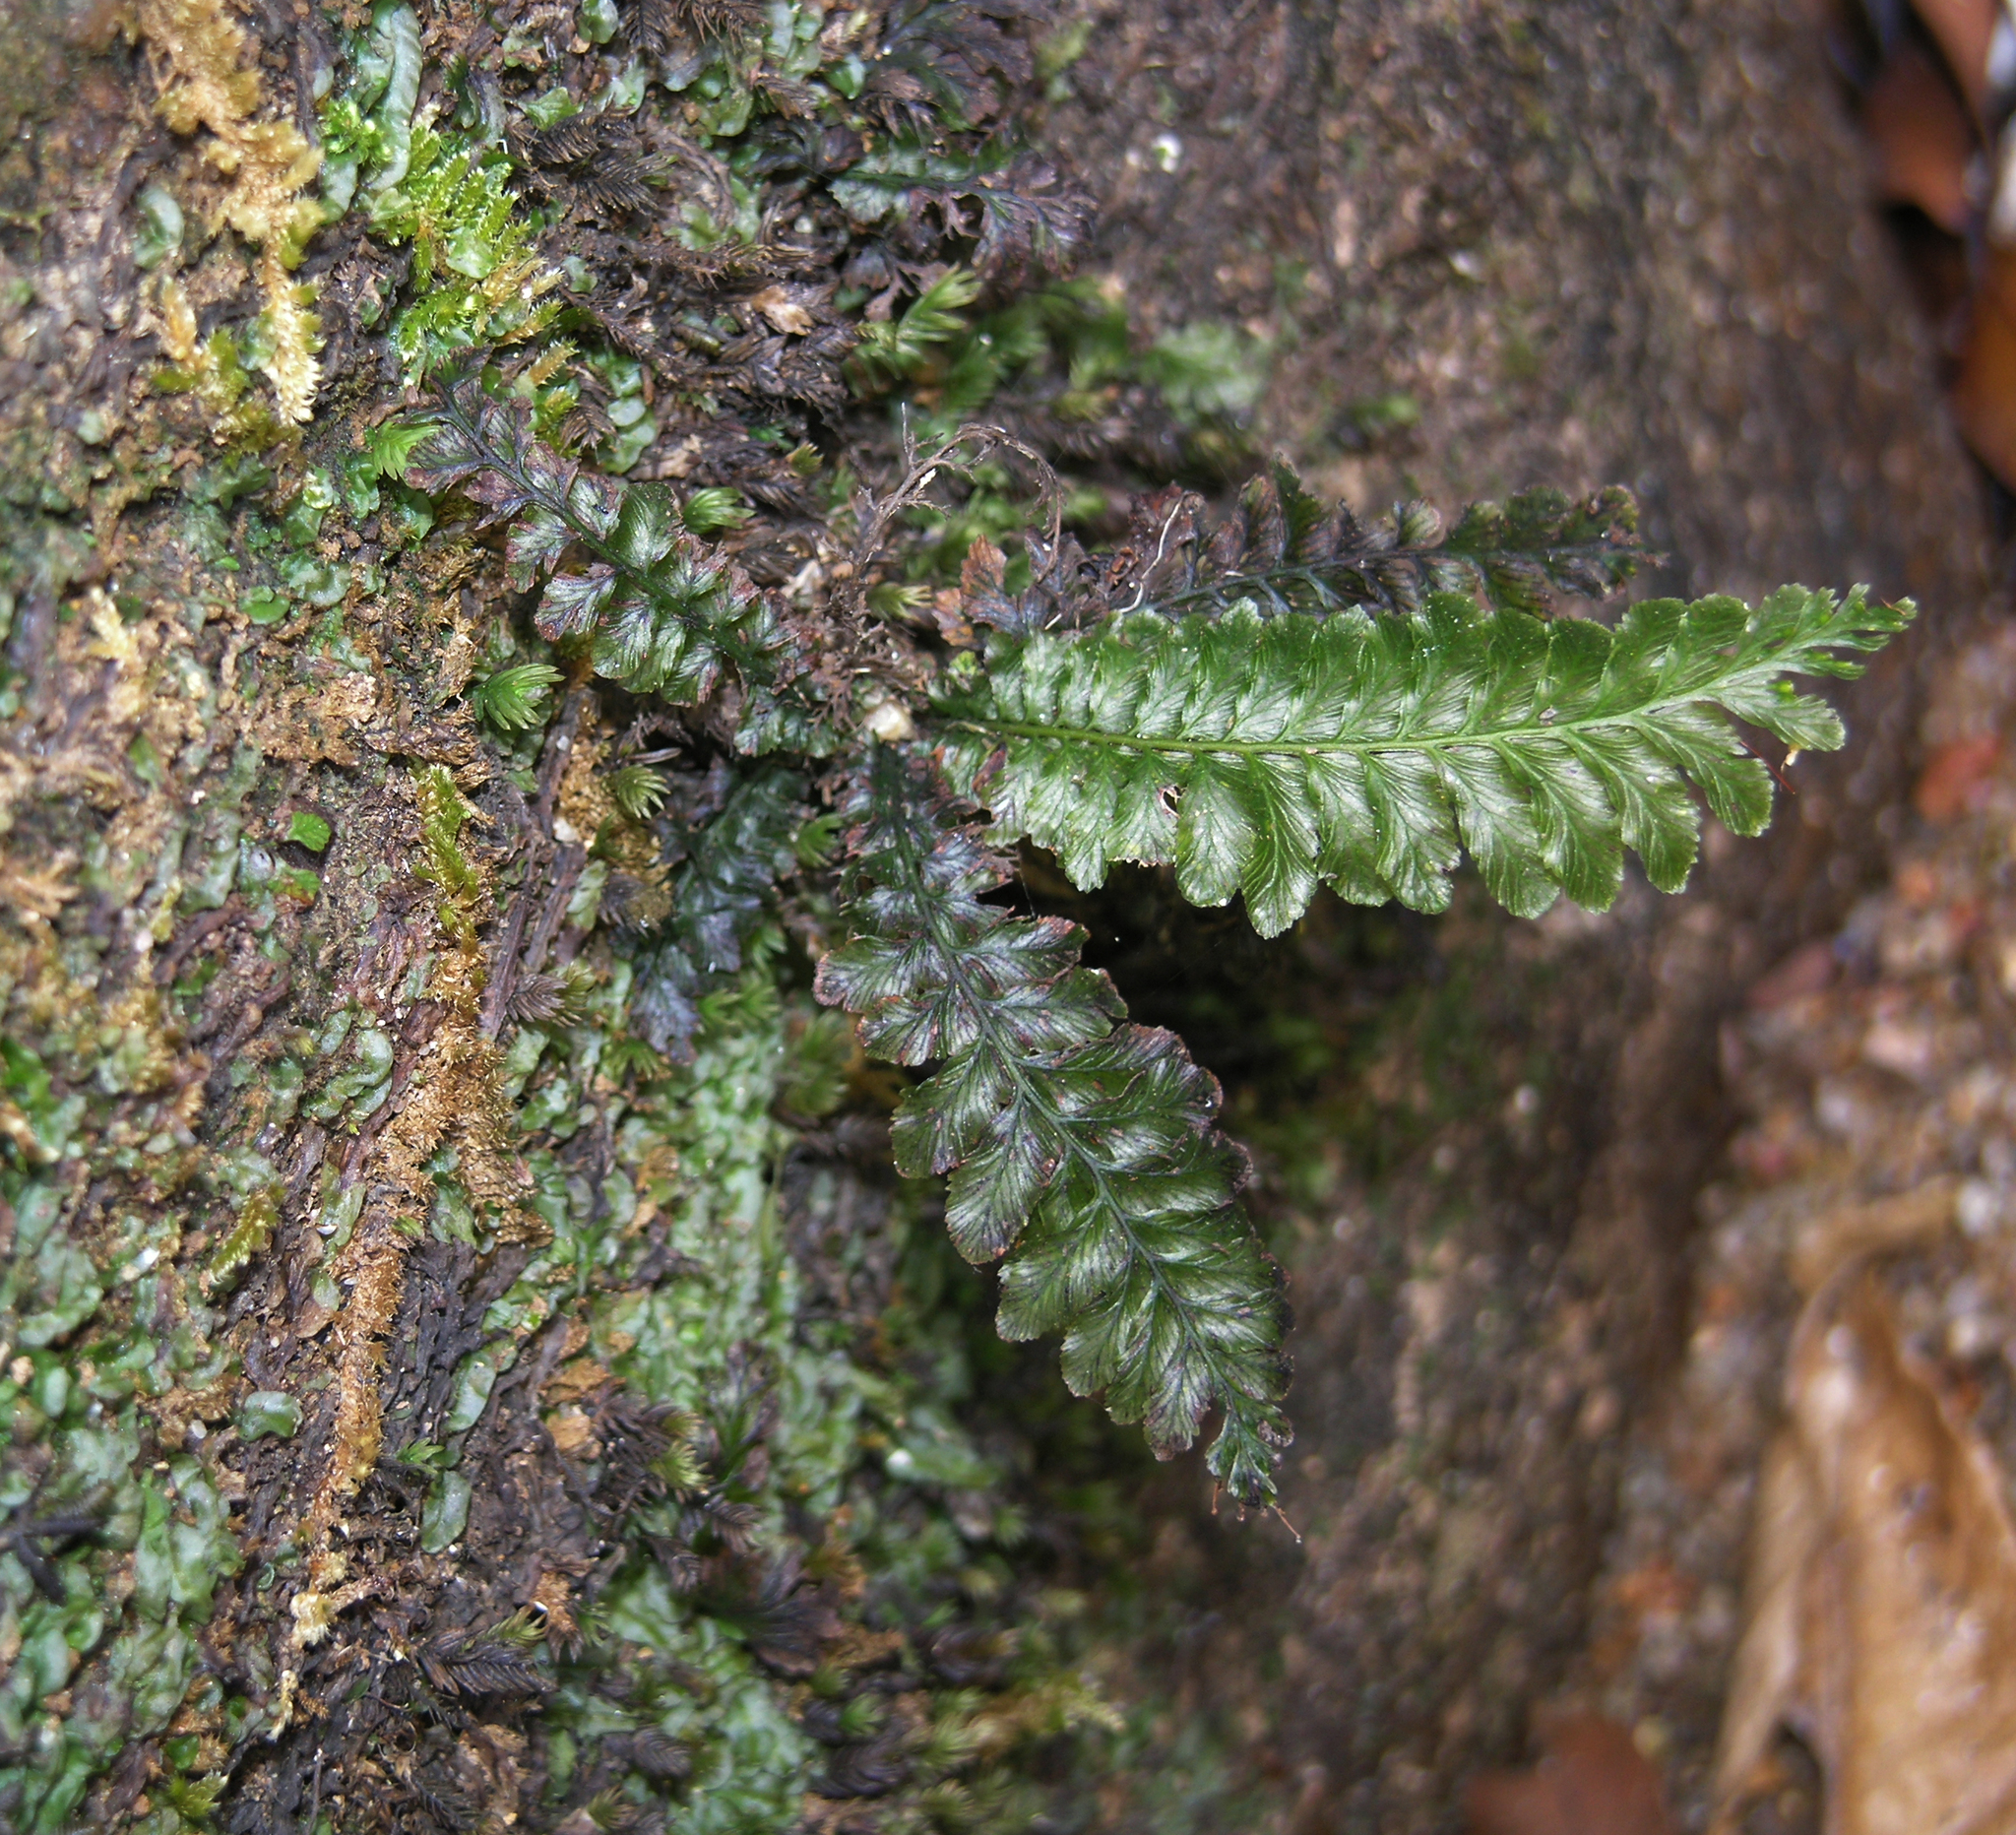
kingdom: Plantae
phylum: Tracheophyta
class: Polypodiopsida
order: Hymenophyllales
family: Hymenophyllaceae
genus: Cephalomanes
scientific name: Cephalomanes javanicum
